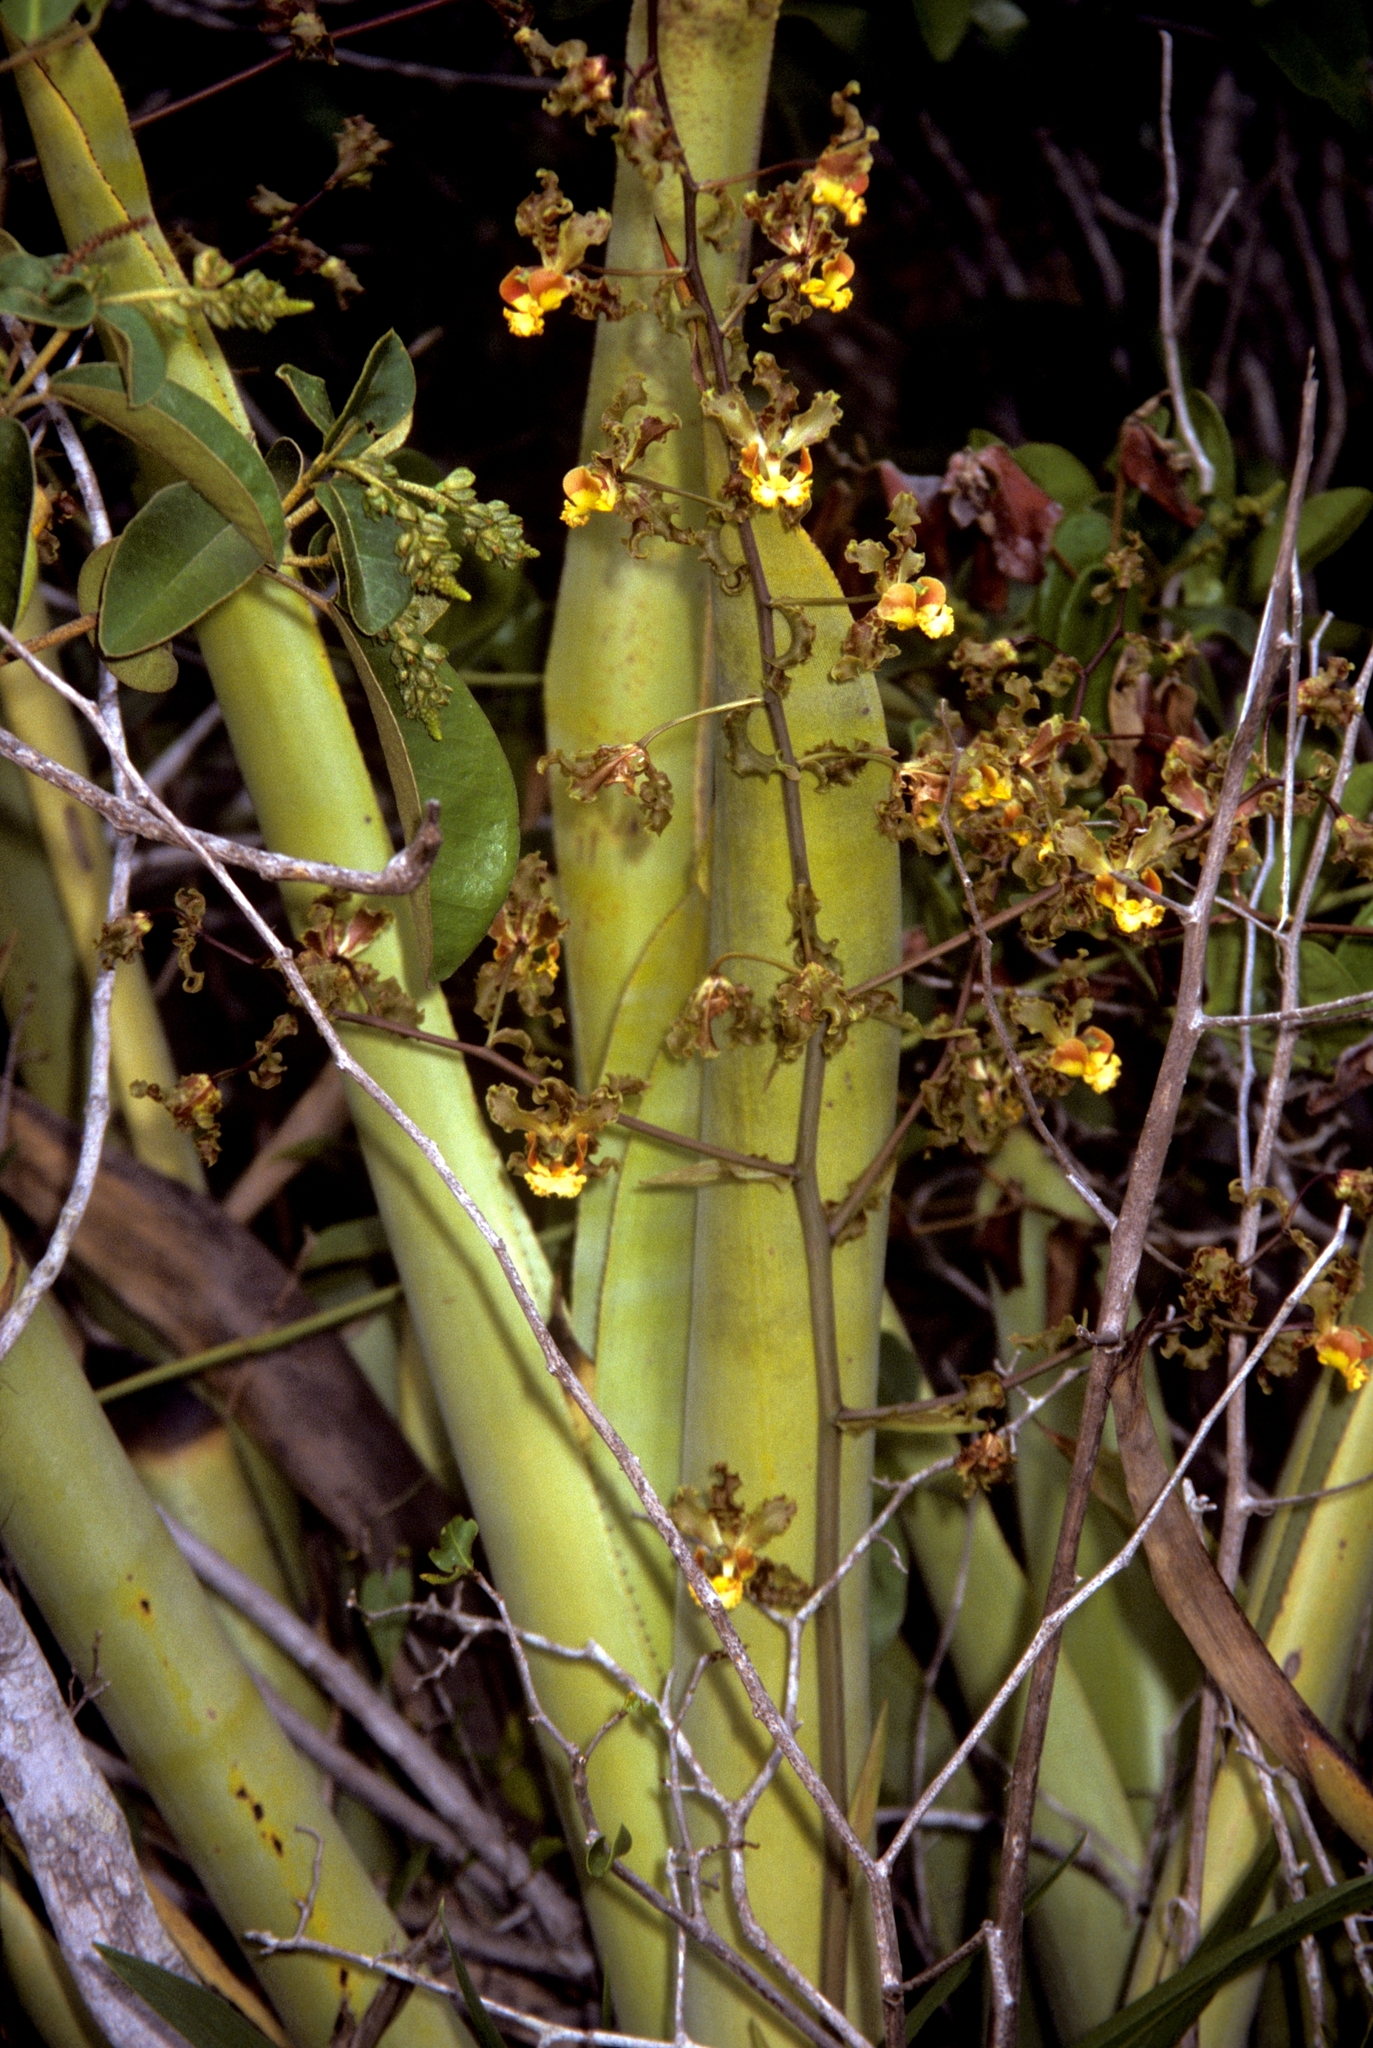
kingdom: Plantae
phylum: Tracheophyta
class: Liliopsida
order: Asparagales
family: Orchidaceae
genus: Cyrtopodium
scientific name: Cyrtopodium holstii
